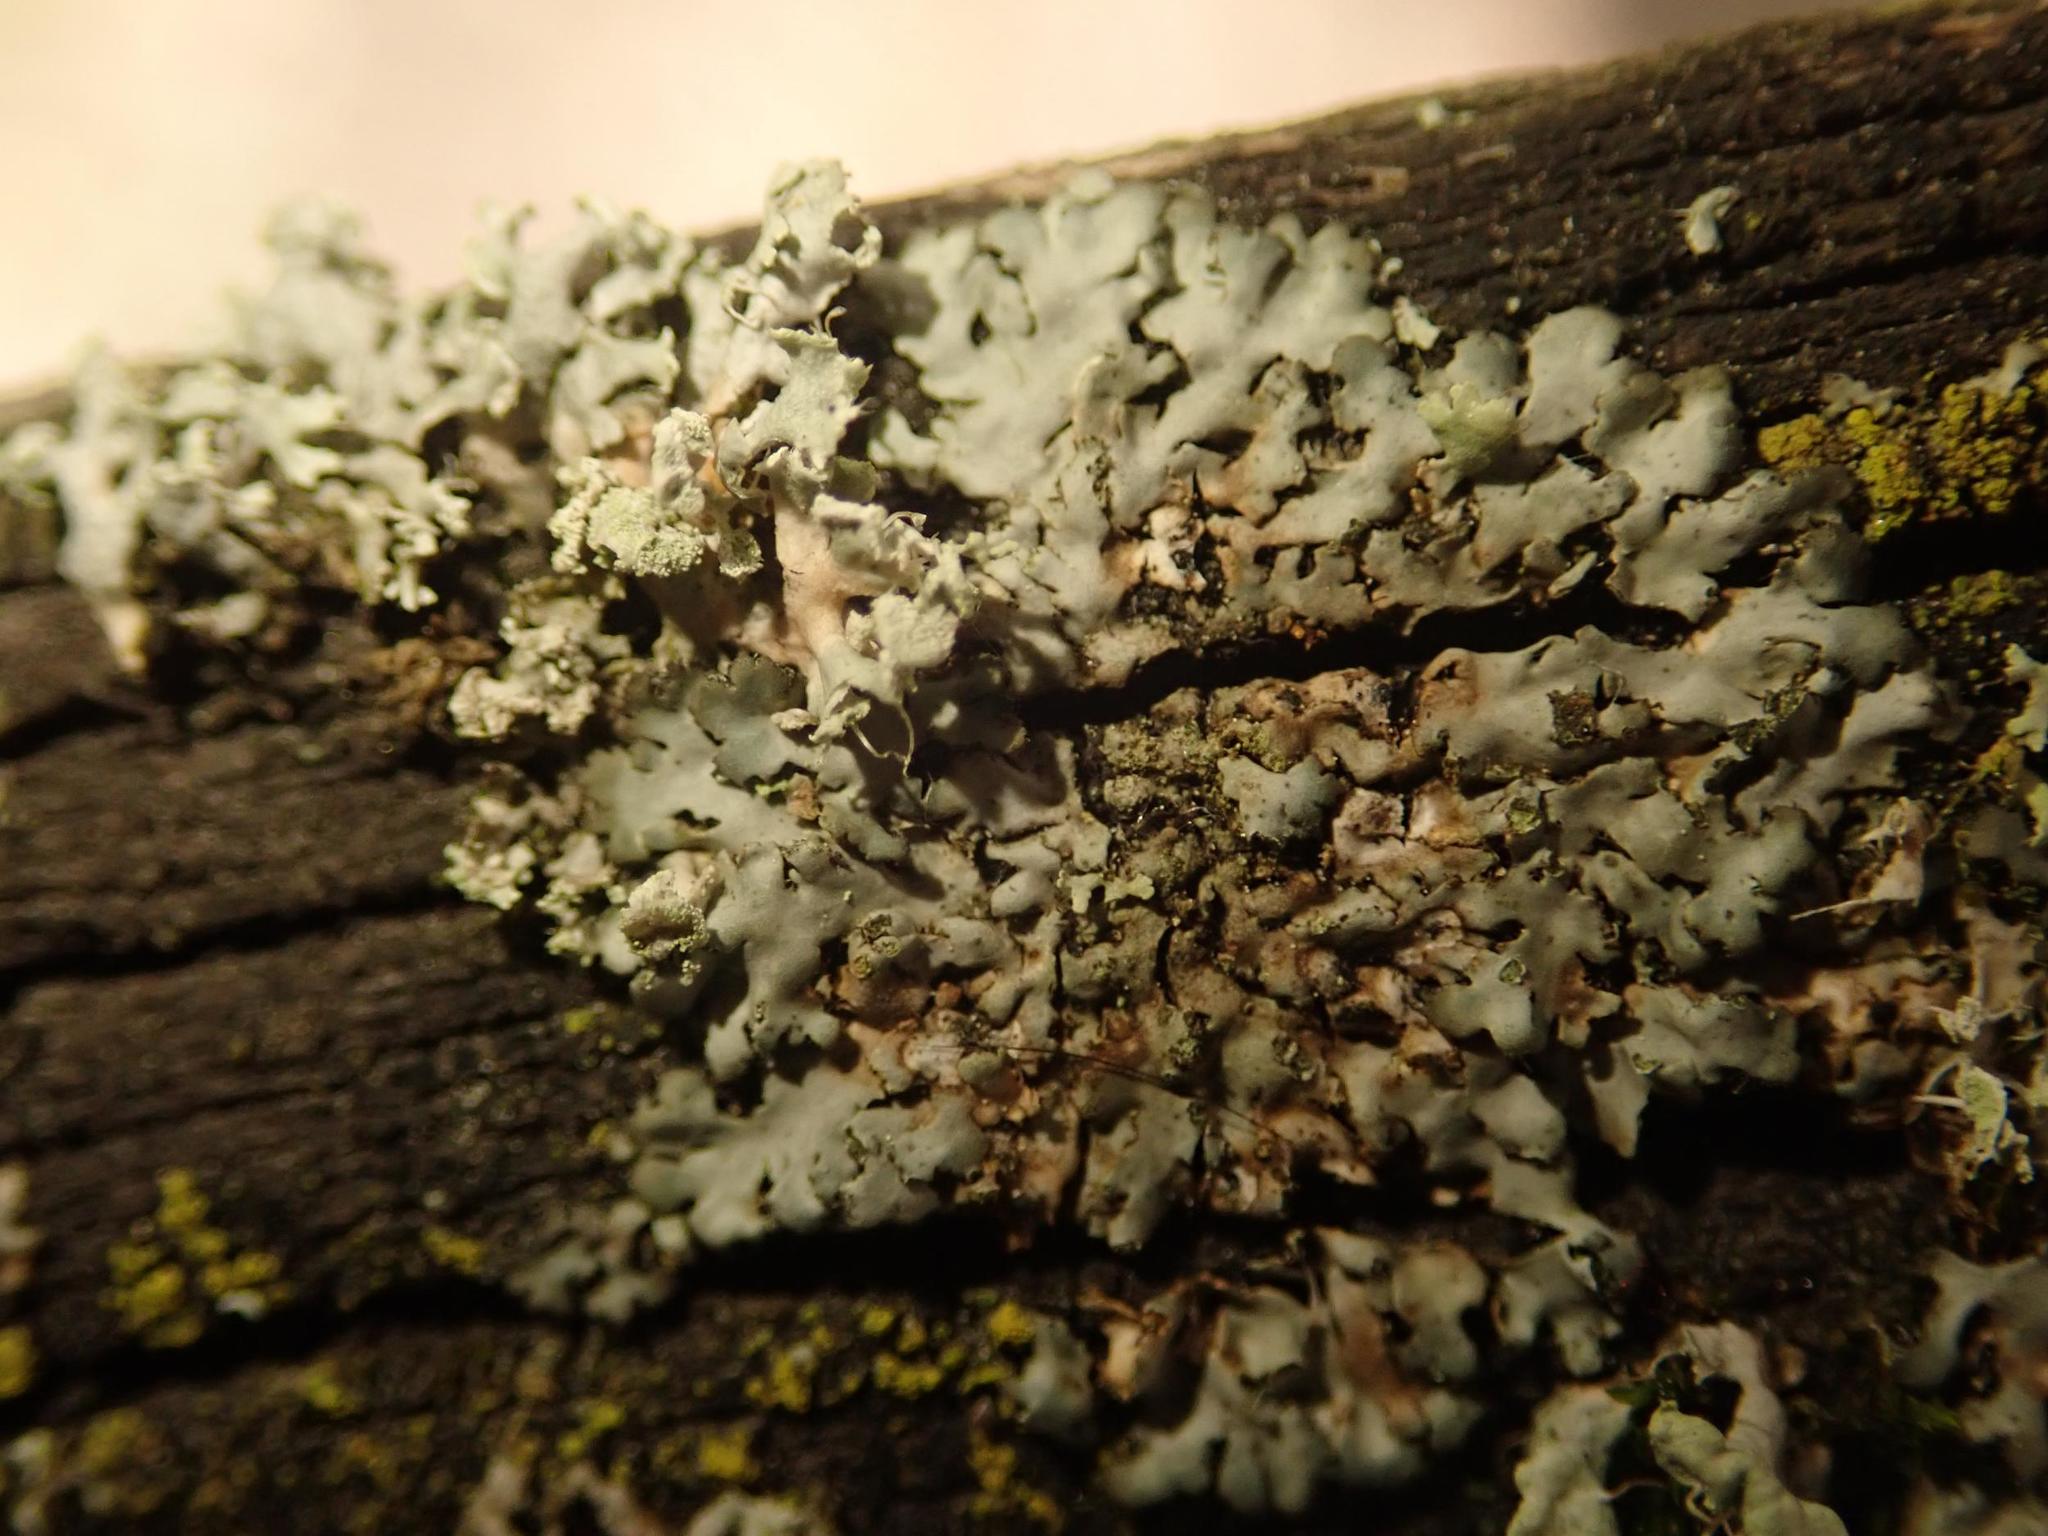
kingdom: Fungi
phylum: Ascomycota
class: Lecanoromycetes
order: Caliciales
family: Physciaceae
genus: Phaeophyscia
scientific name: Phaeophyscia orbicularis
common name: Mealy shadow lichen
